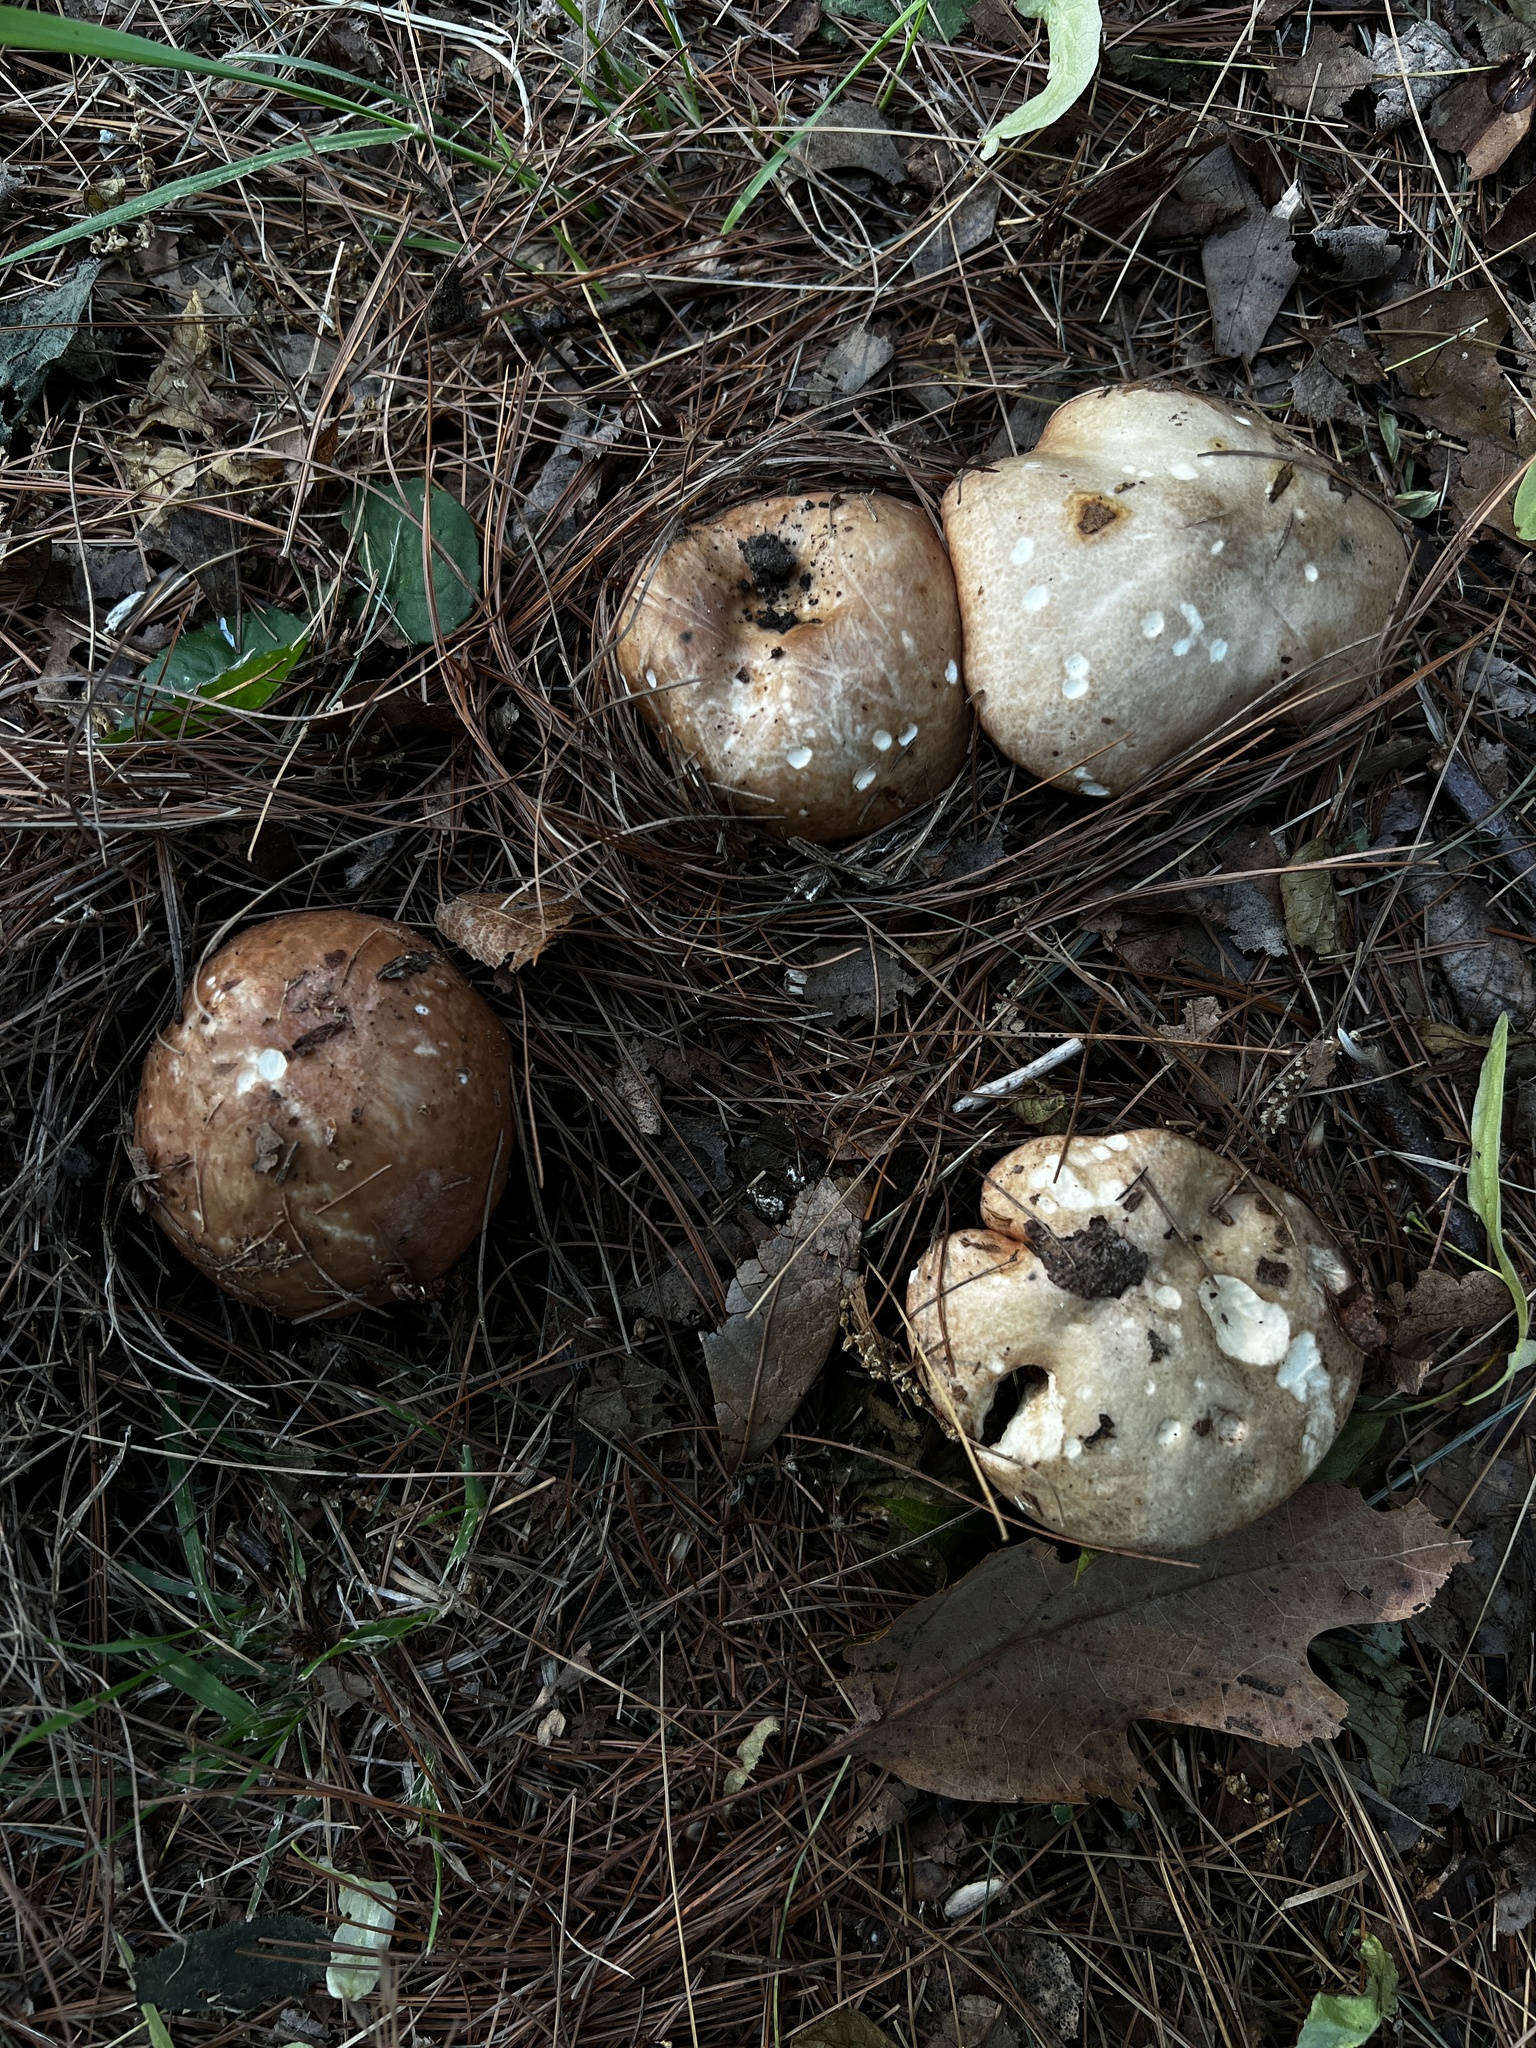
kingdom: Fungi
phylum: Basidiomycota
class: Agaricomycetes
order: Boletales
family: Suillaceae
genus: Fuscoboletinus
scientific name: Fuscoboletinus weaverae
